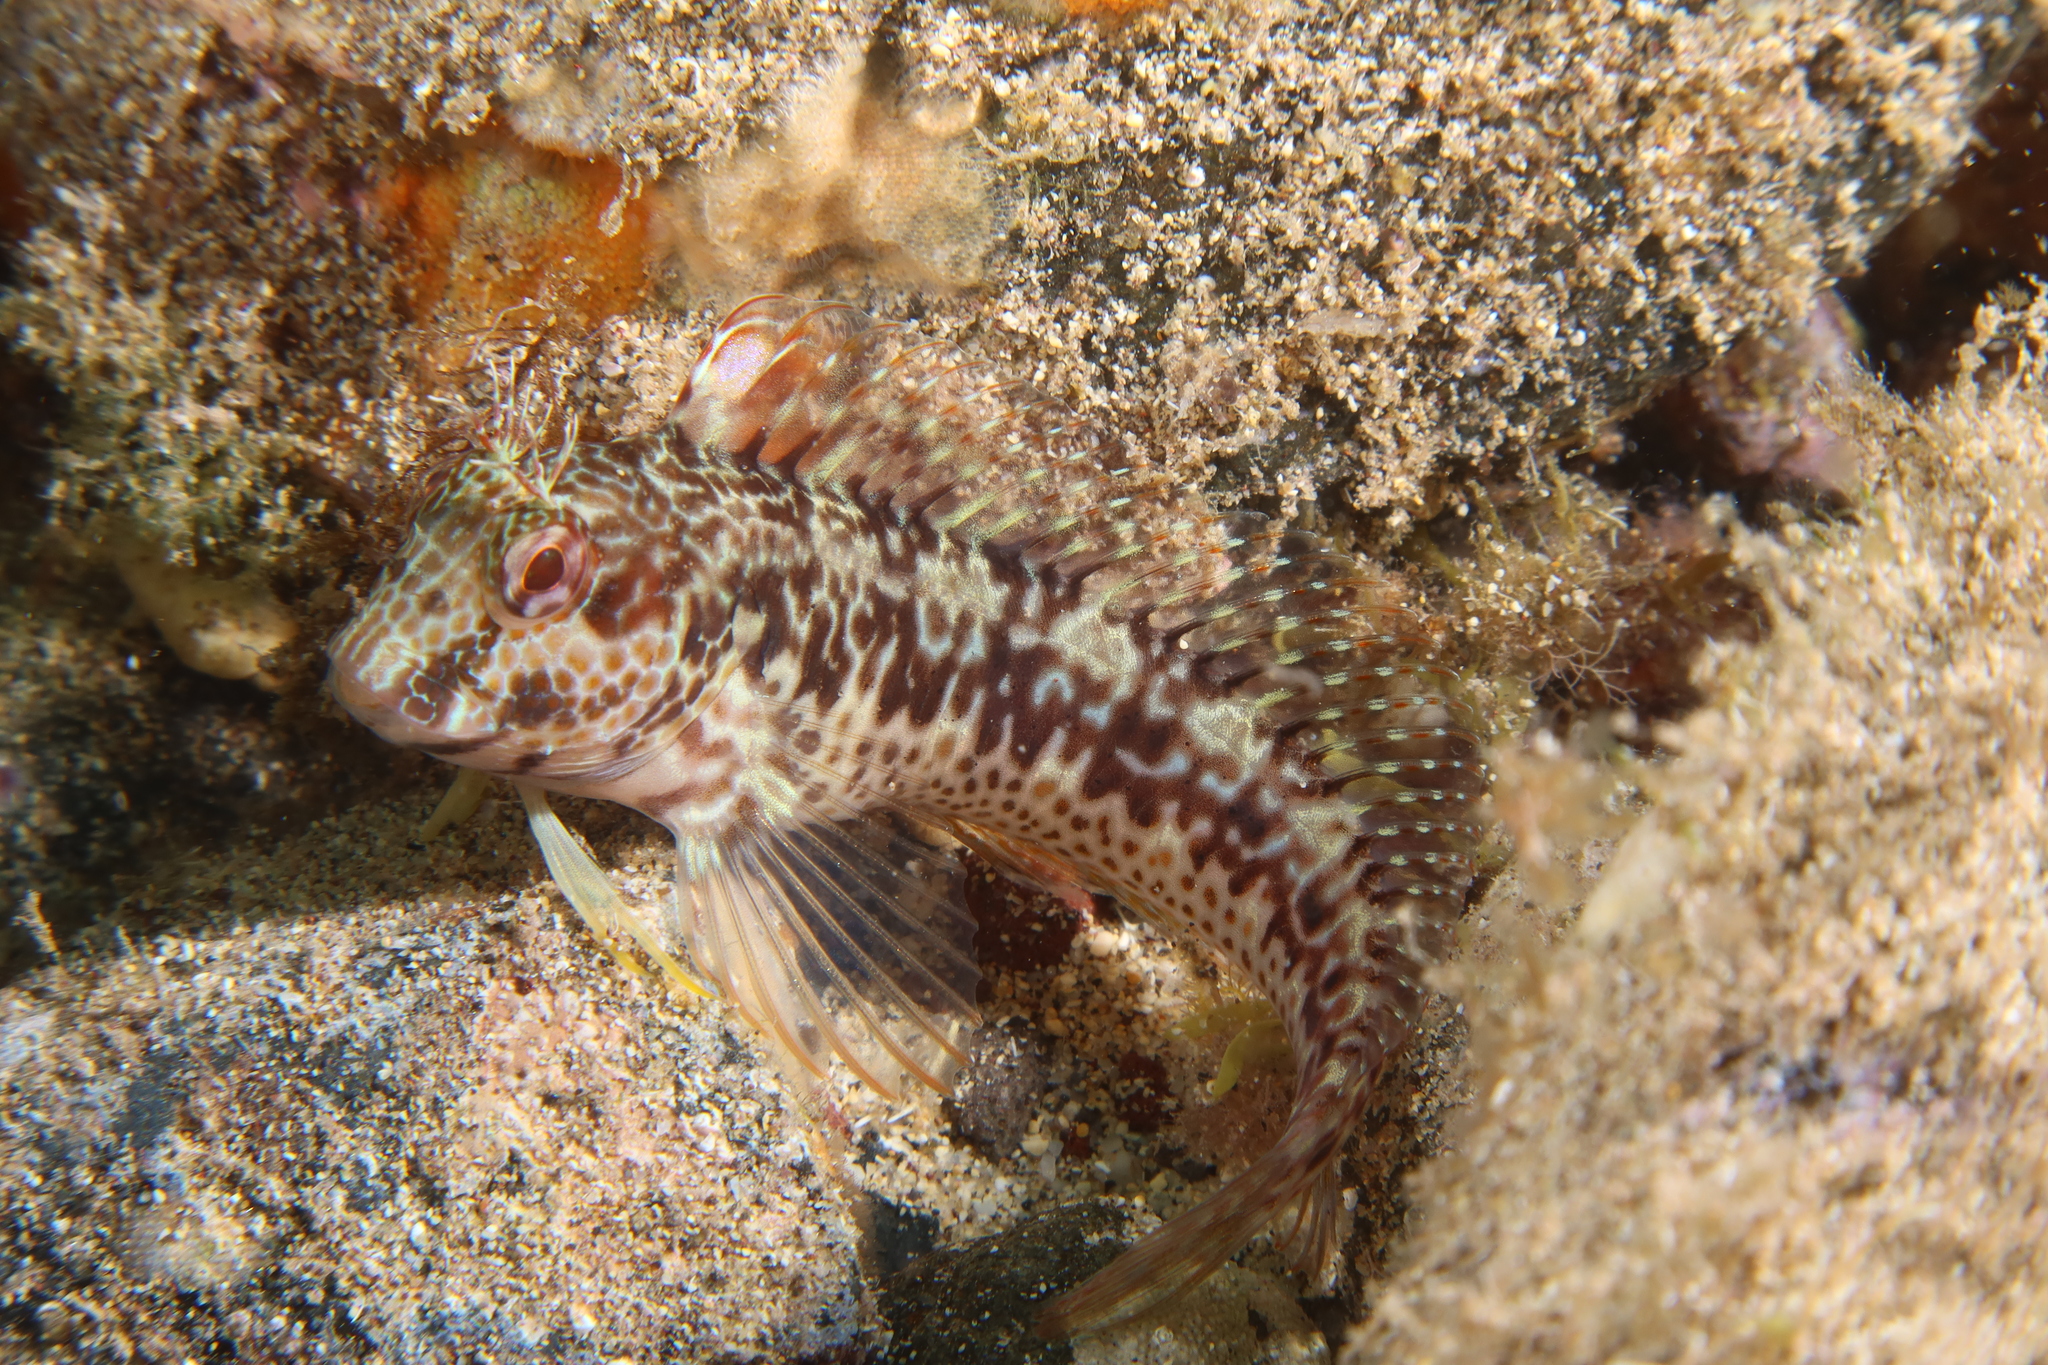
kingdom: Animalia
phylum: Chordata
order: Perciformes
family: Blenniidae
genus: Parablennius
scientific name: Parablennius pilicornis
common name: Ringneck blenny
